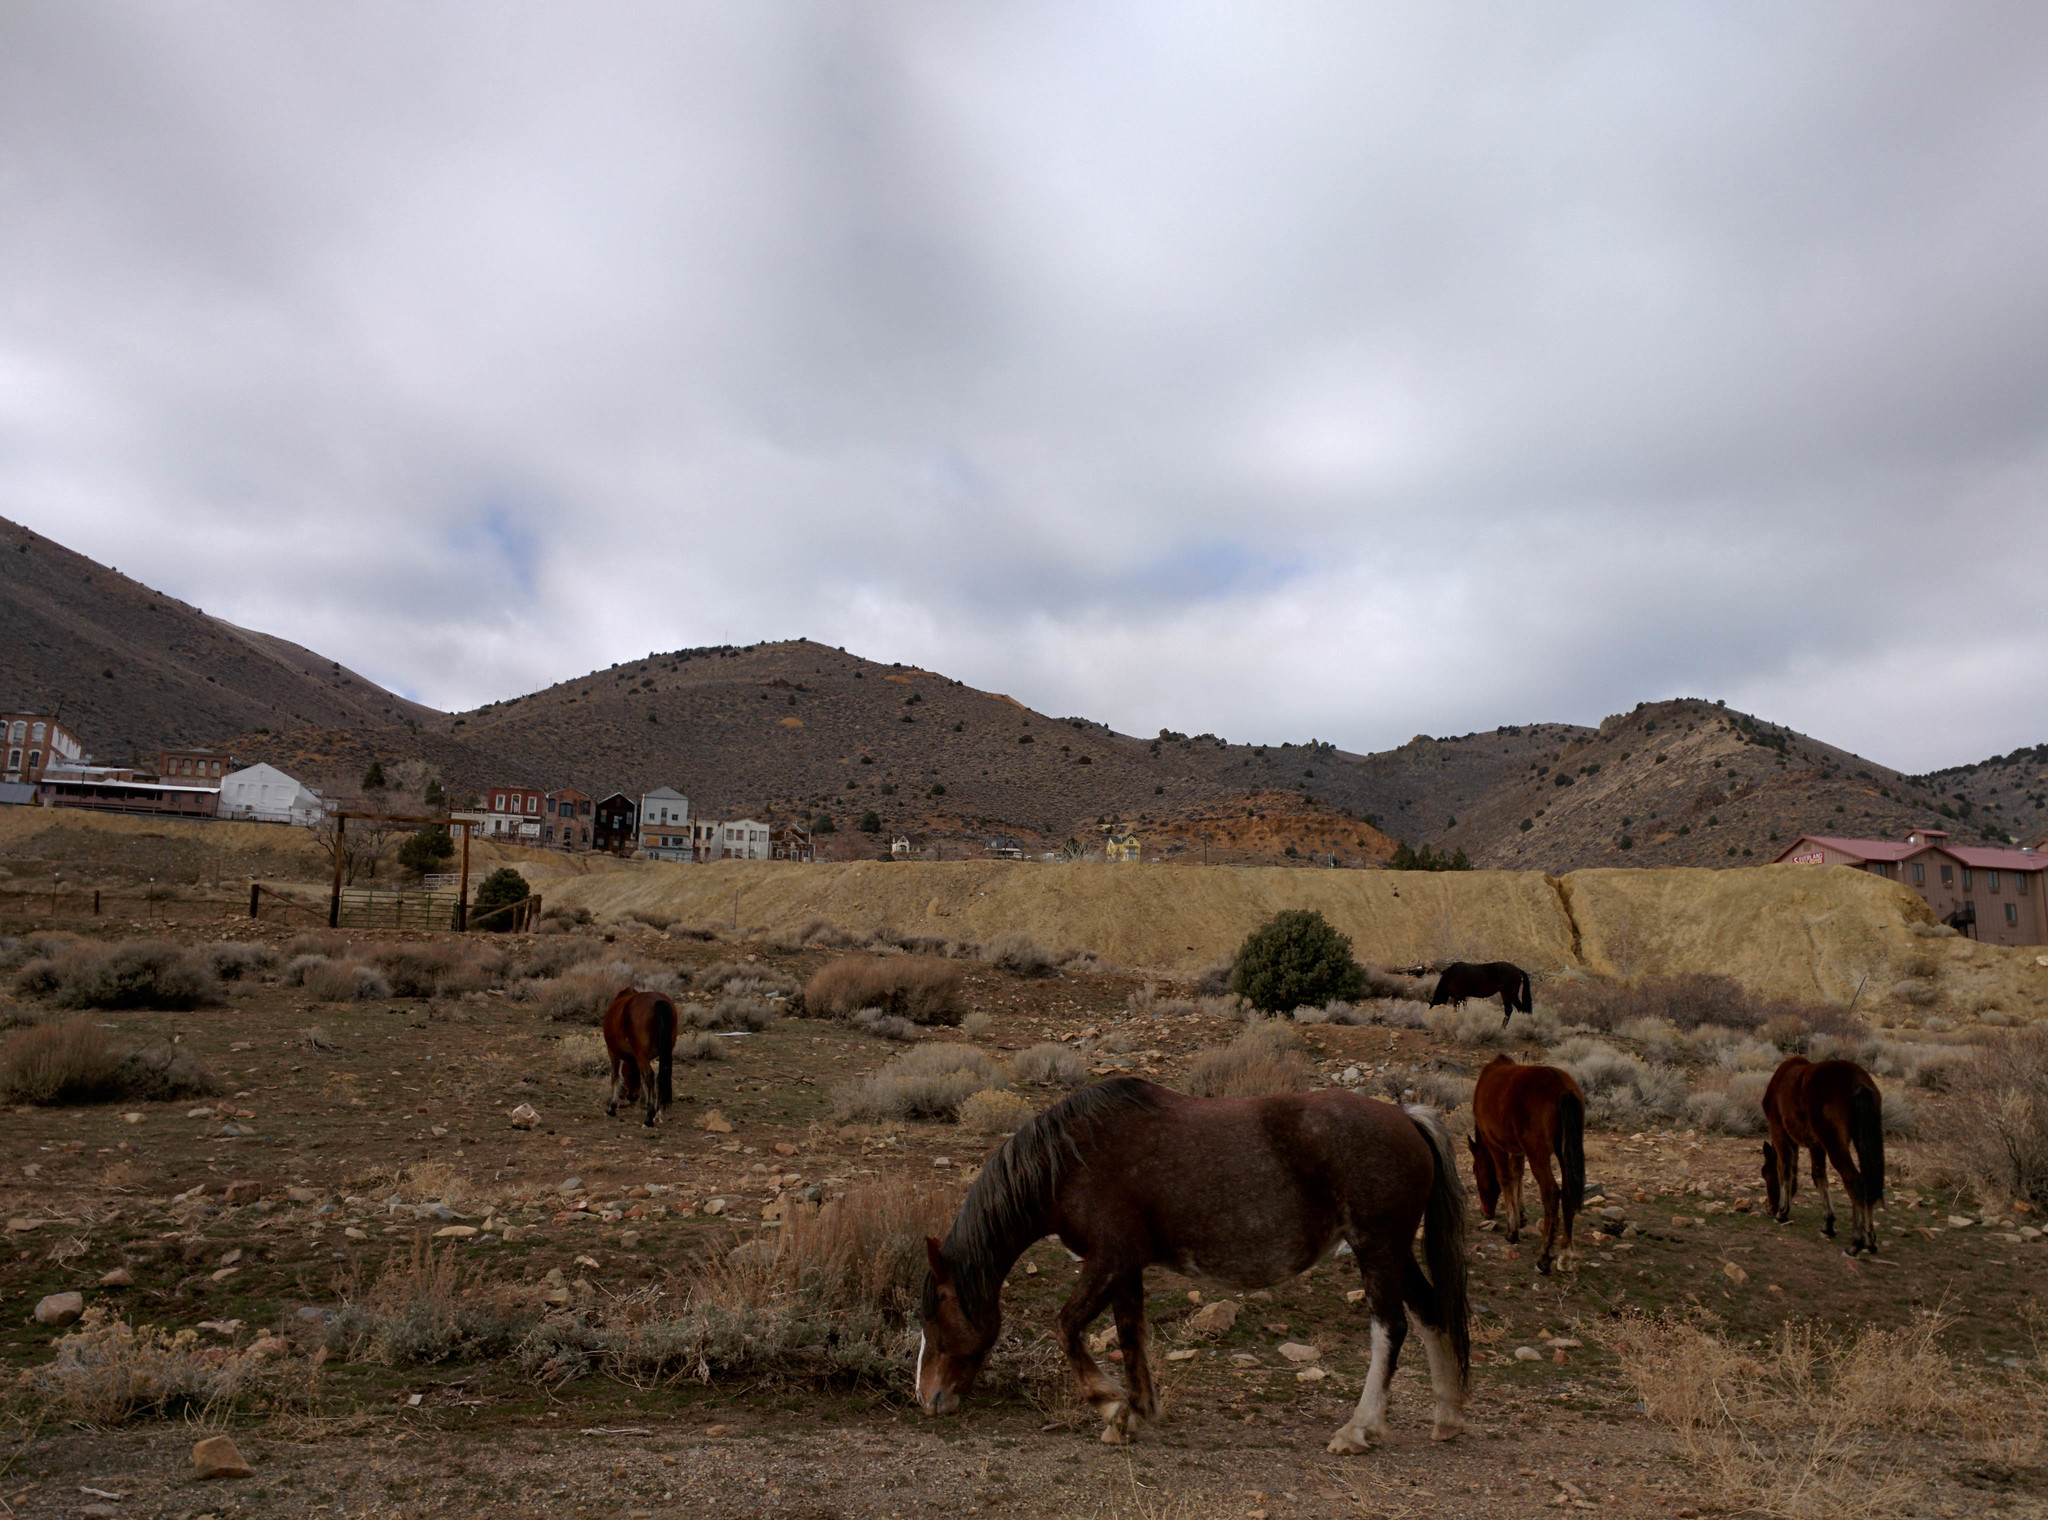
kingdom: Animalia
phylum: Chordata
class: Mammalia
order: Perissodactyla
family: Equidae
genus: Equus
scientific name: Equus caballus
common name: Horse
